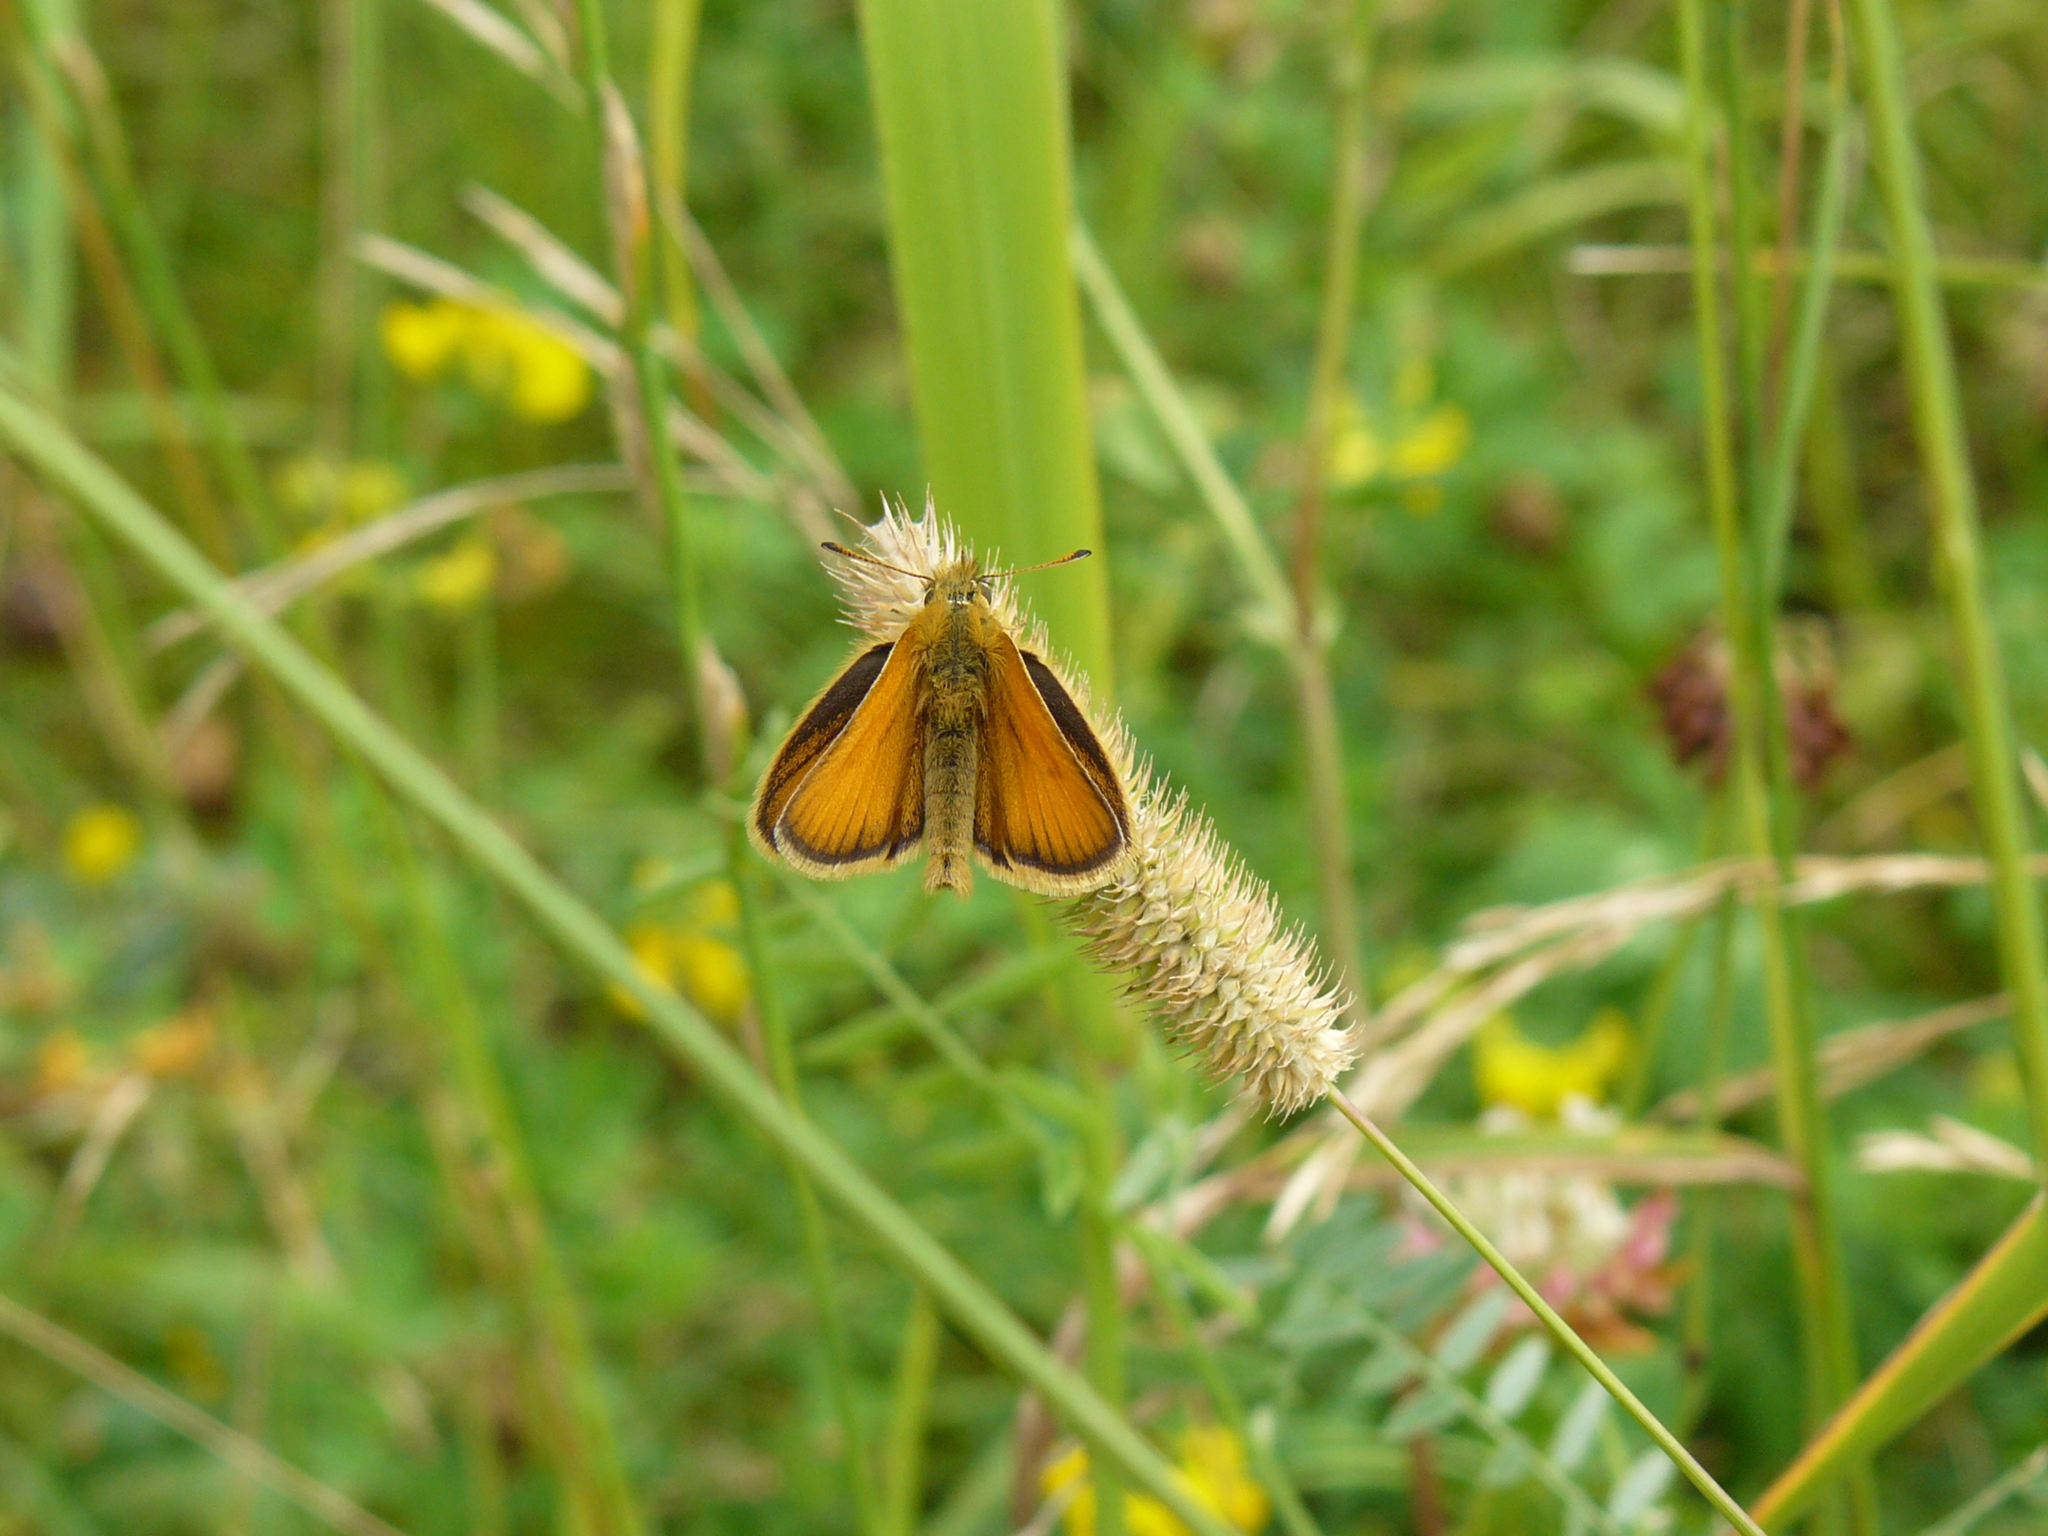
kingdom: Animalia
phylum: Arthropoda
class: Insecta
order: Lepidoptera
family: Hesperiidae
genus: Thymelicus
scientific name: Thymelicus lineola
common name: Essex skipper
